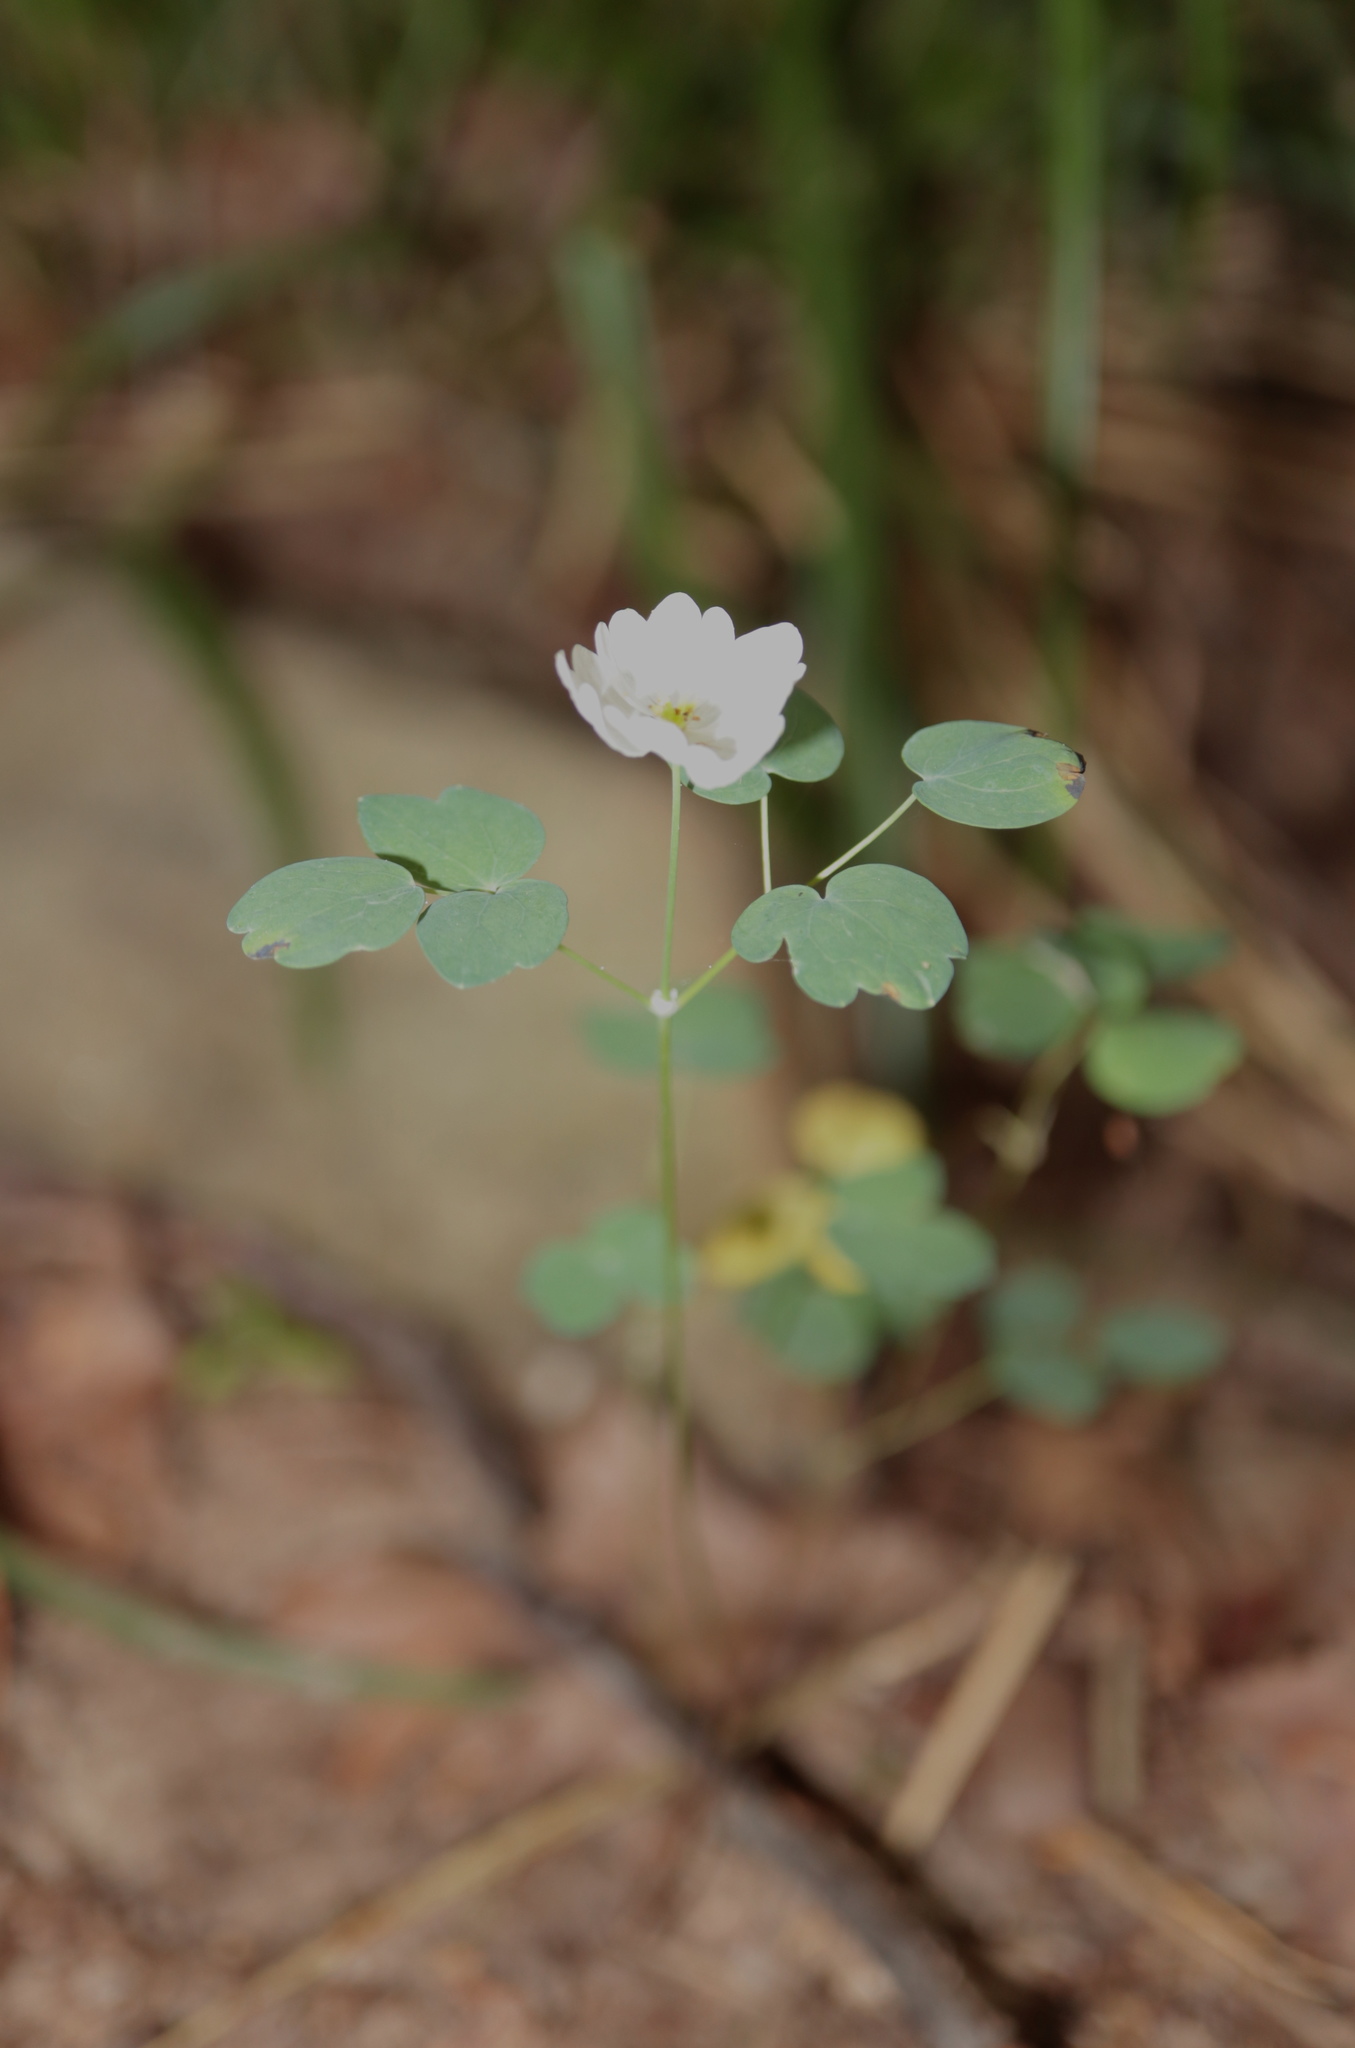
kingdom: Plantae
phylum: Tracheophyta
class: Magnoliopsida
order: Ranunculales
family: Ranunculaceae
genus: Thalictrum
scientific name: Thalictrum thalictroides
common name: Rue-anemone
